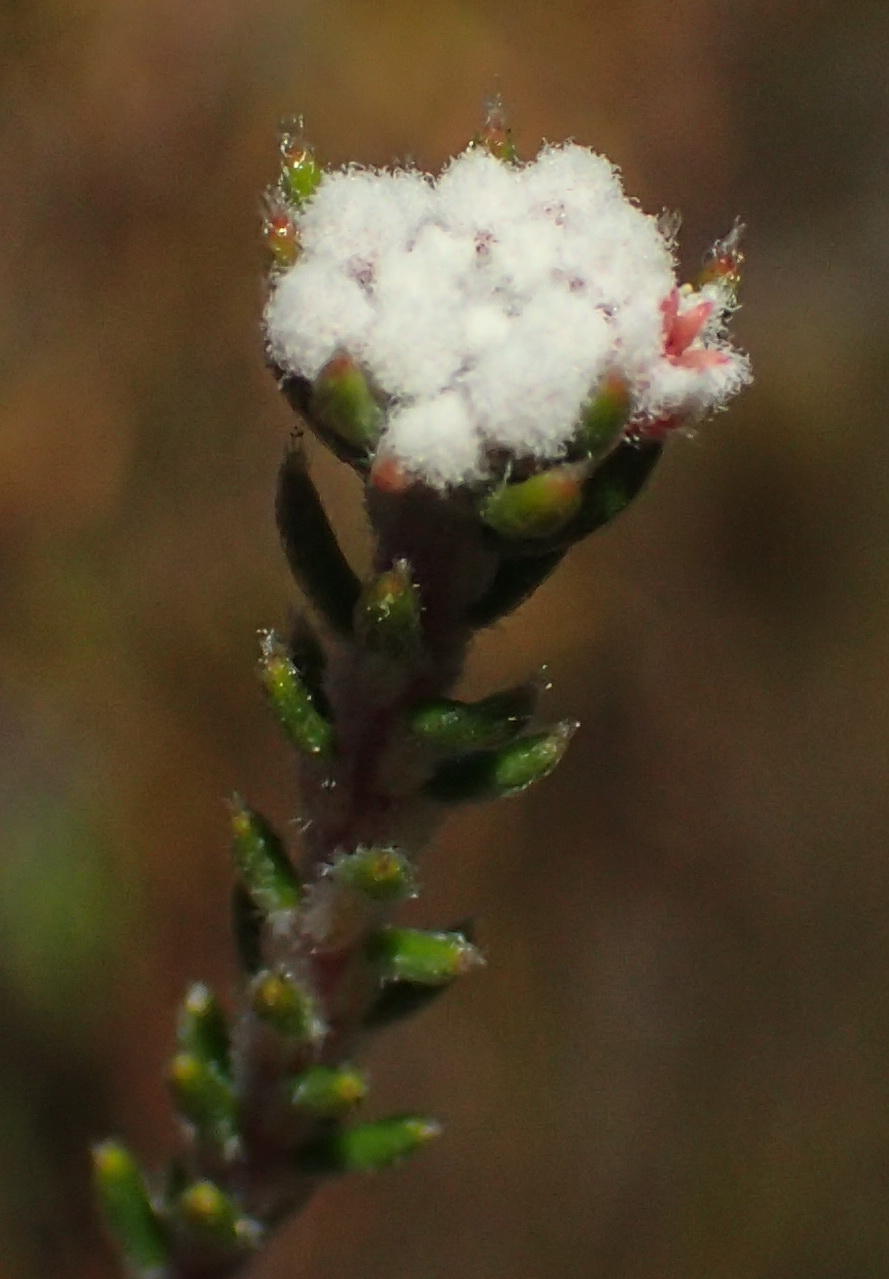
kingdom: Plantae
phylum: Tracheophyta
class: Magnoliopsida
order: Rosales
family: Rhamnaceae
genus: Phylica
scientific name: Phylica alba
